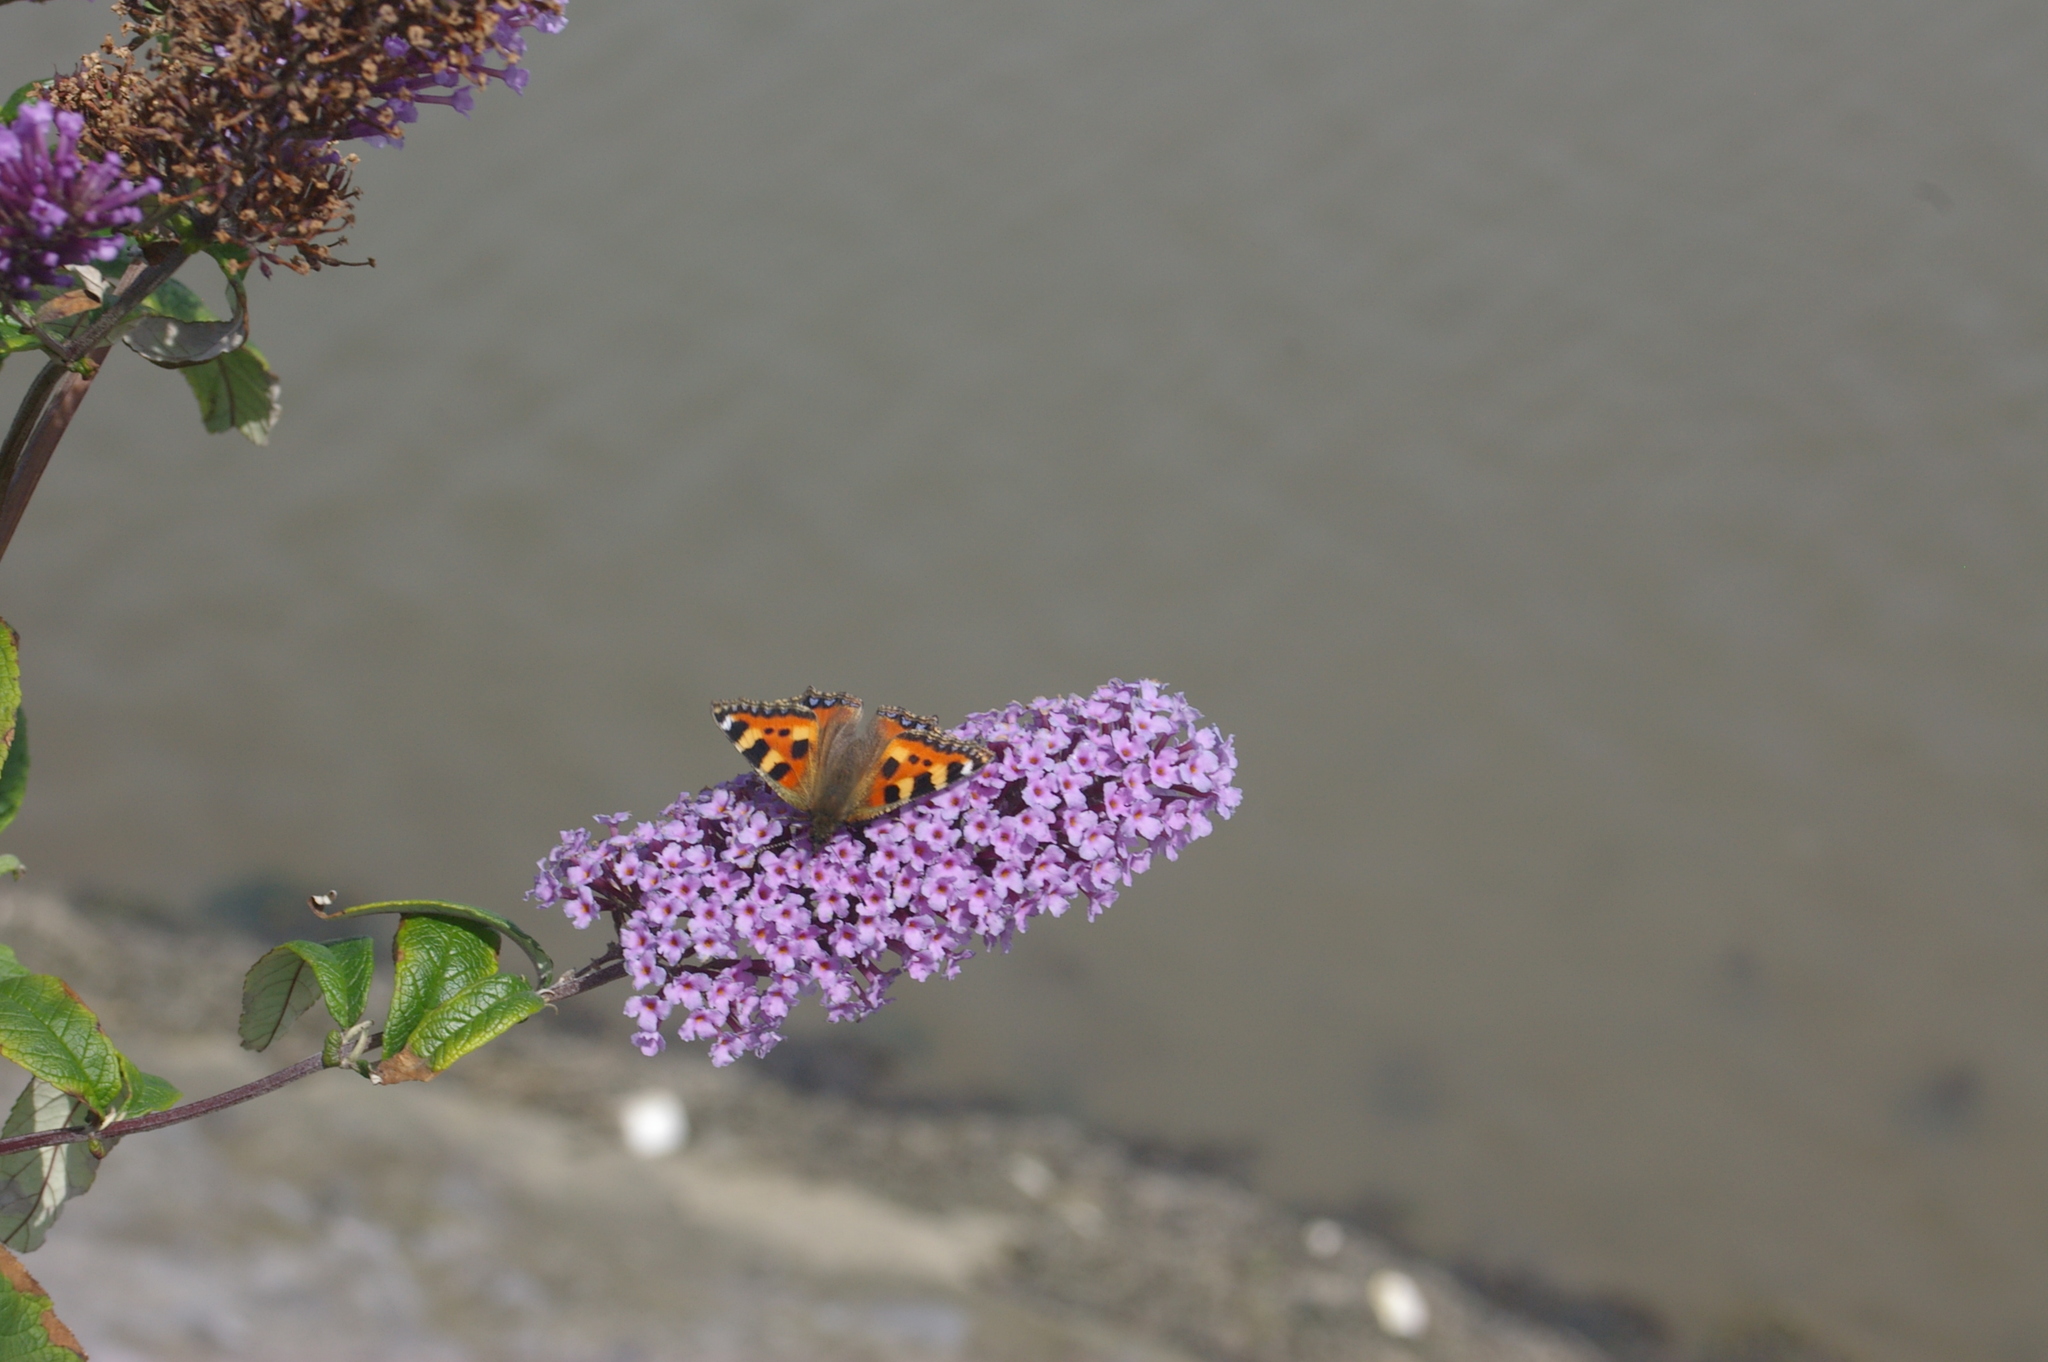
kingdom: Animalia
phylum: Arthropoda
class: Insecta
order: Lepidoptera
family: Nymphalidae
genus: Aglais
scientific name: Aglais urticae
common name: Small tortoiseshell
